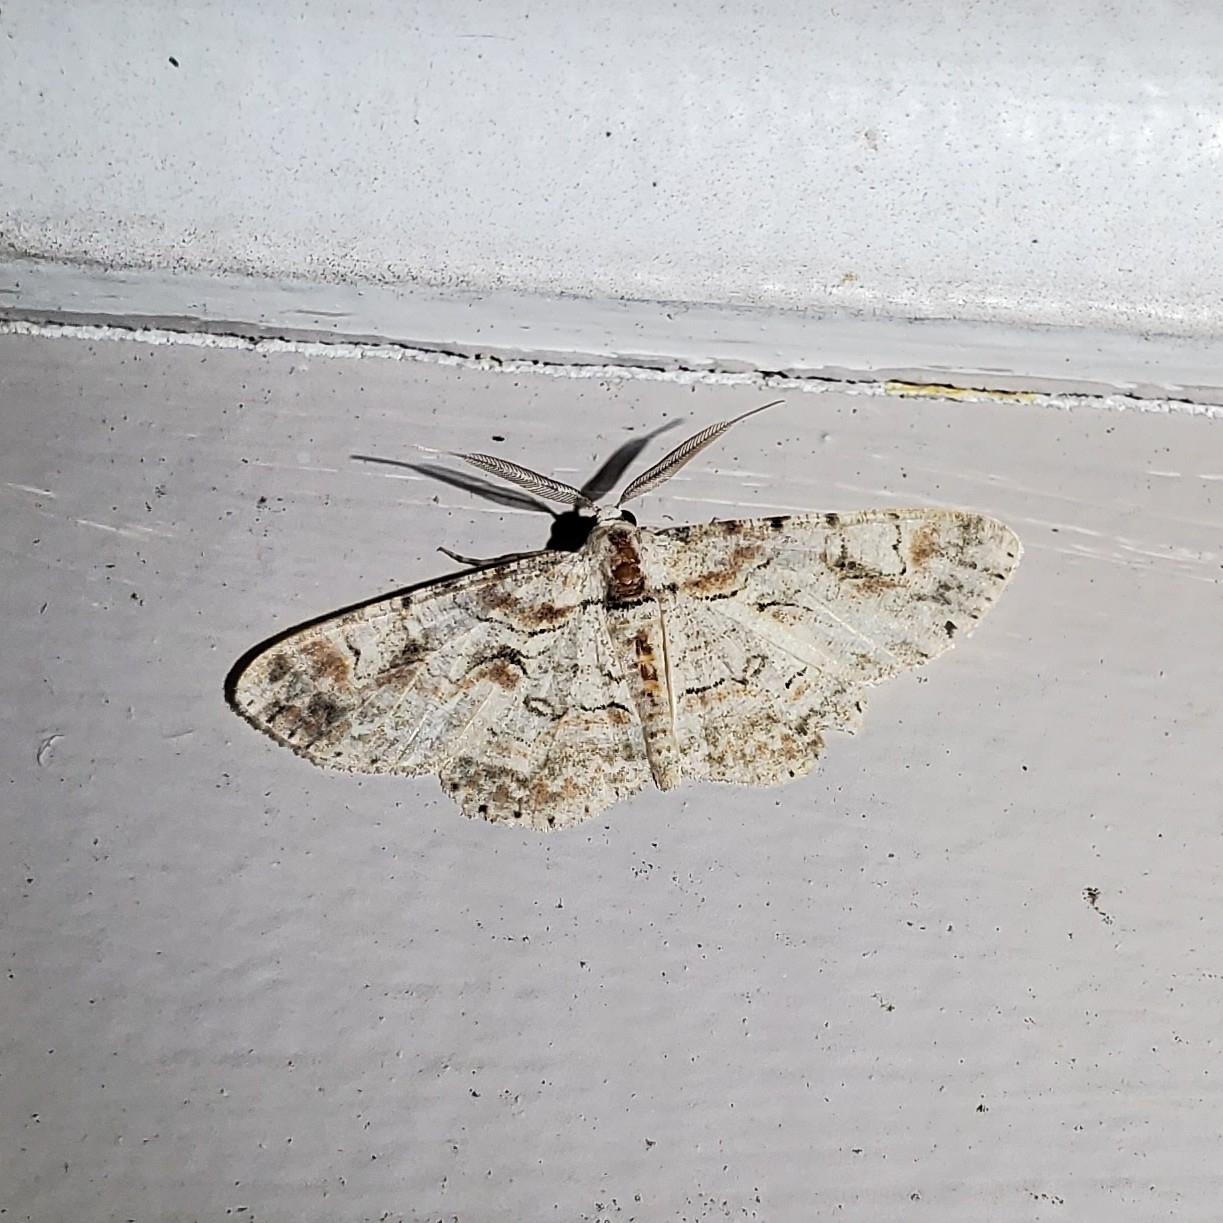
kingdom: Animalia
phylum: Arthropoda
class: Insecta
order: Lepidoptera
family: Geometridae
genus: Iridopsis
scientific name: Iridopsis defectaria
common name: Brown-shaded gray
